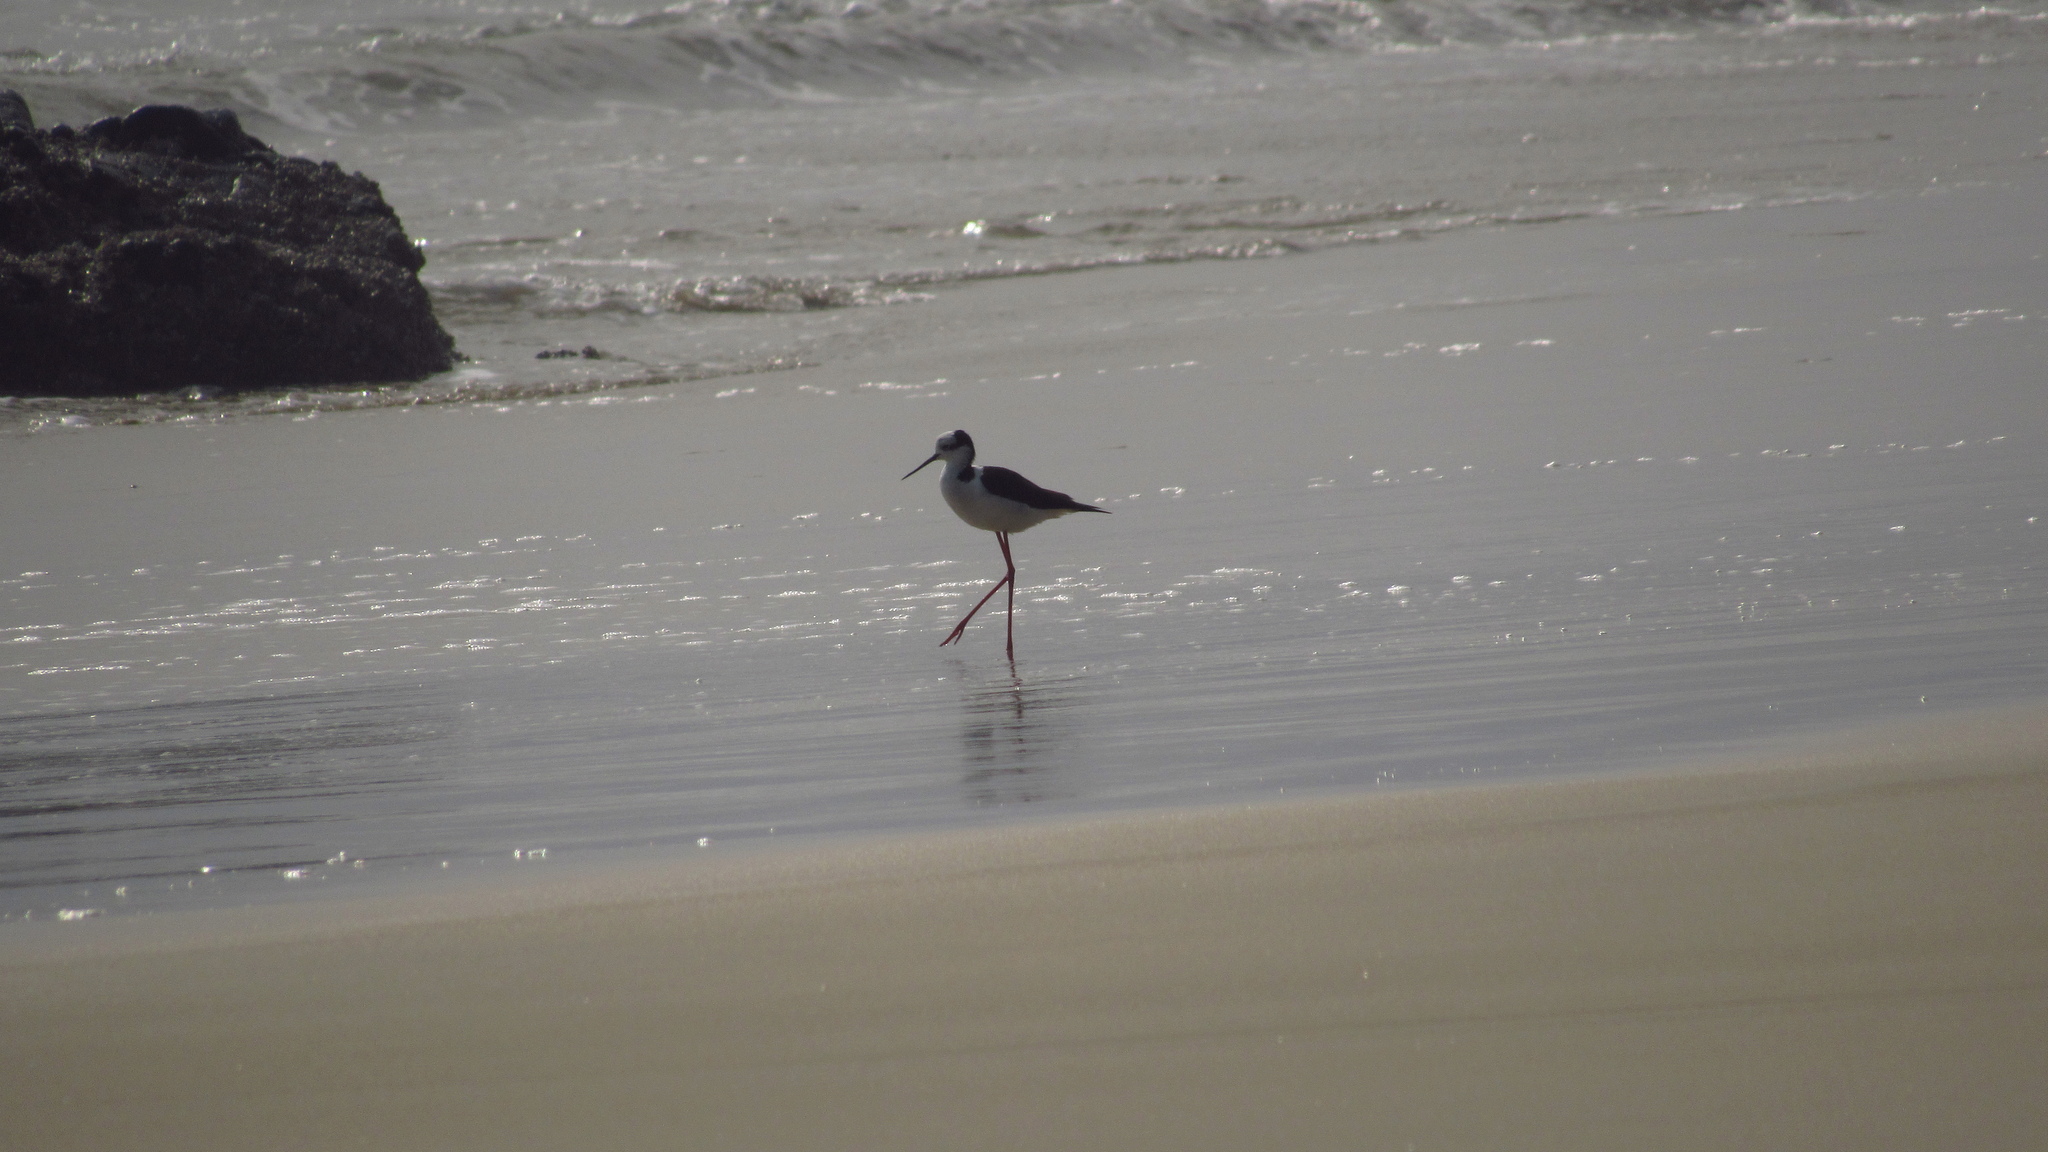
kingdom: Animalia
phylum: Chordata
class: Aves
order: Charadriiformes
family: Recurvirostridae
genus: Himantopus
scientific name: Himantopus mexicanus
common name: Black-necked stilt
